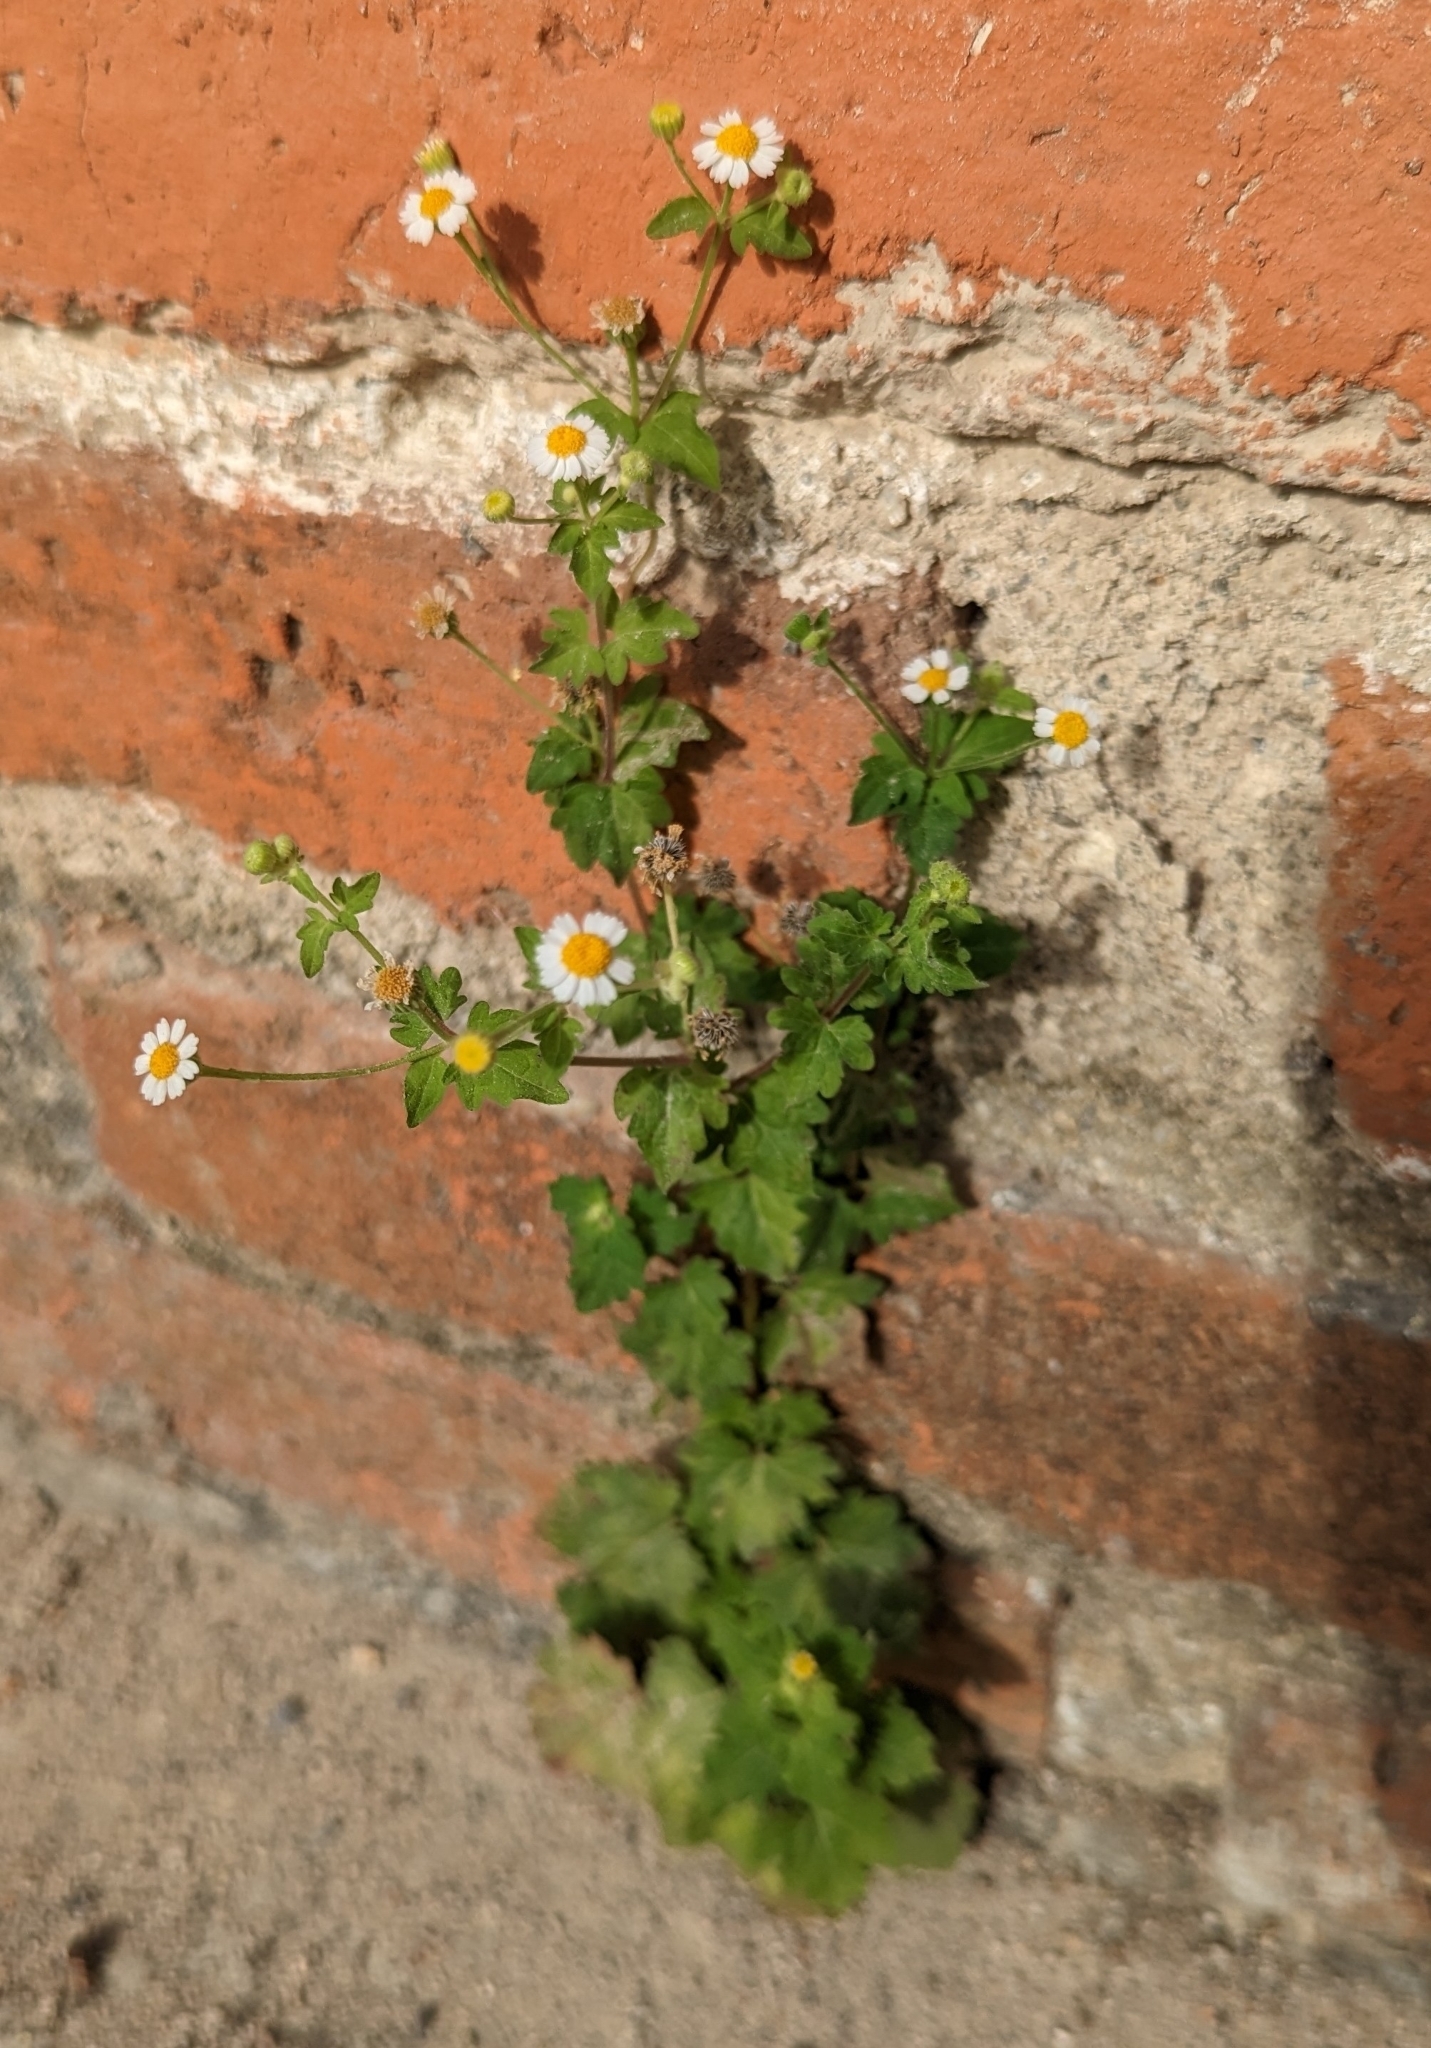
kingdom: Plantae
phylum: Tracheophyta
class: Magnoliopsida
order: Asterales
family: Asteraceae
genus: Galinsogeopsis
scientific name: Galinsogeopsis spilanthoides
